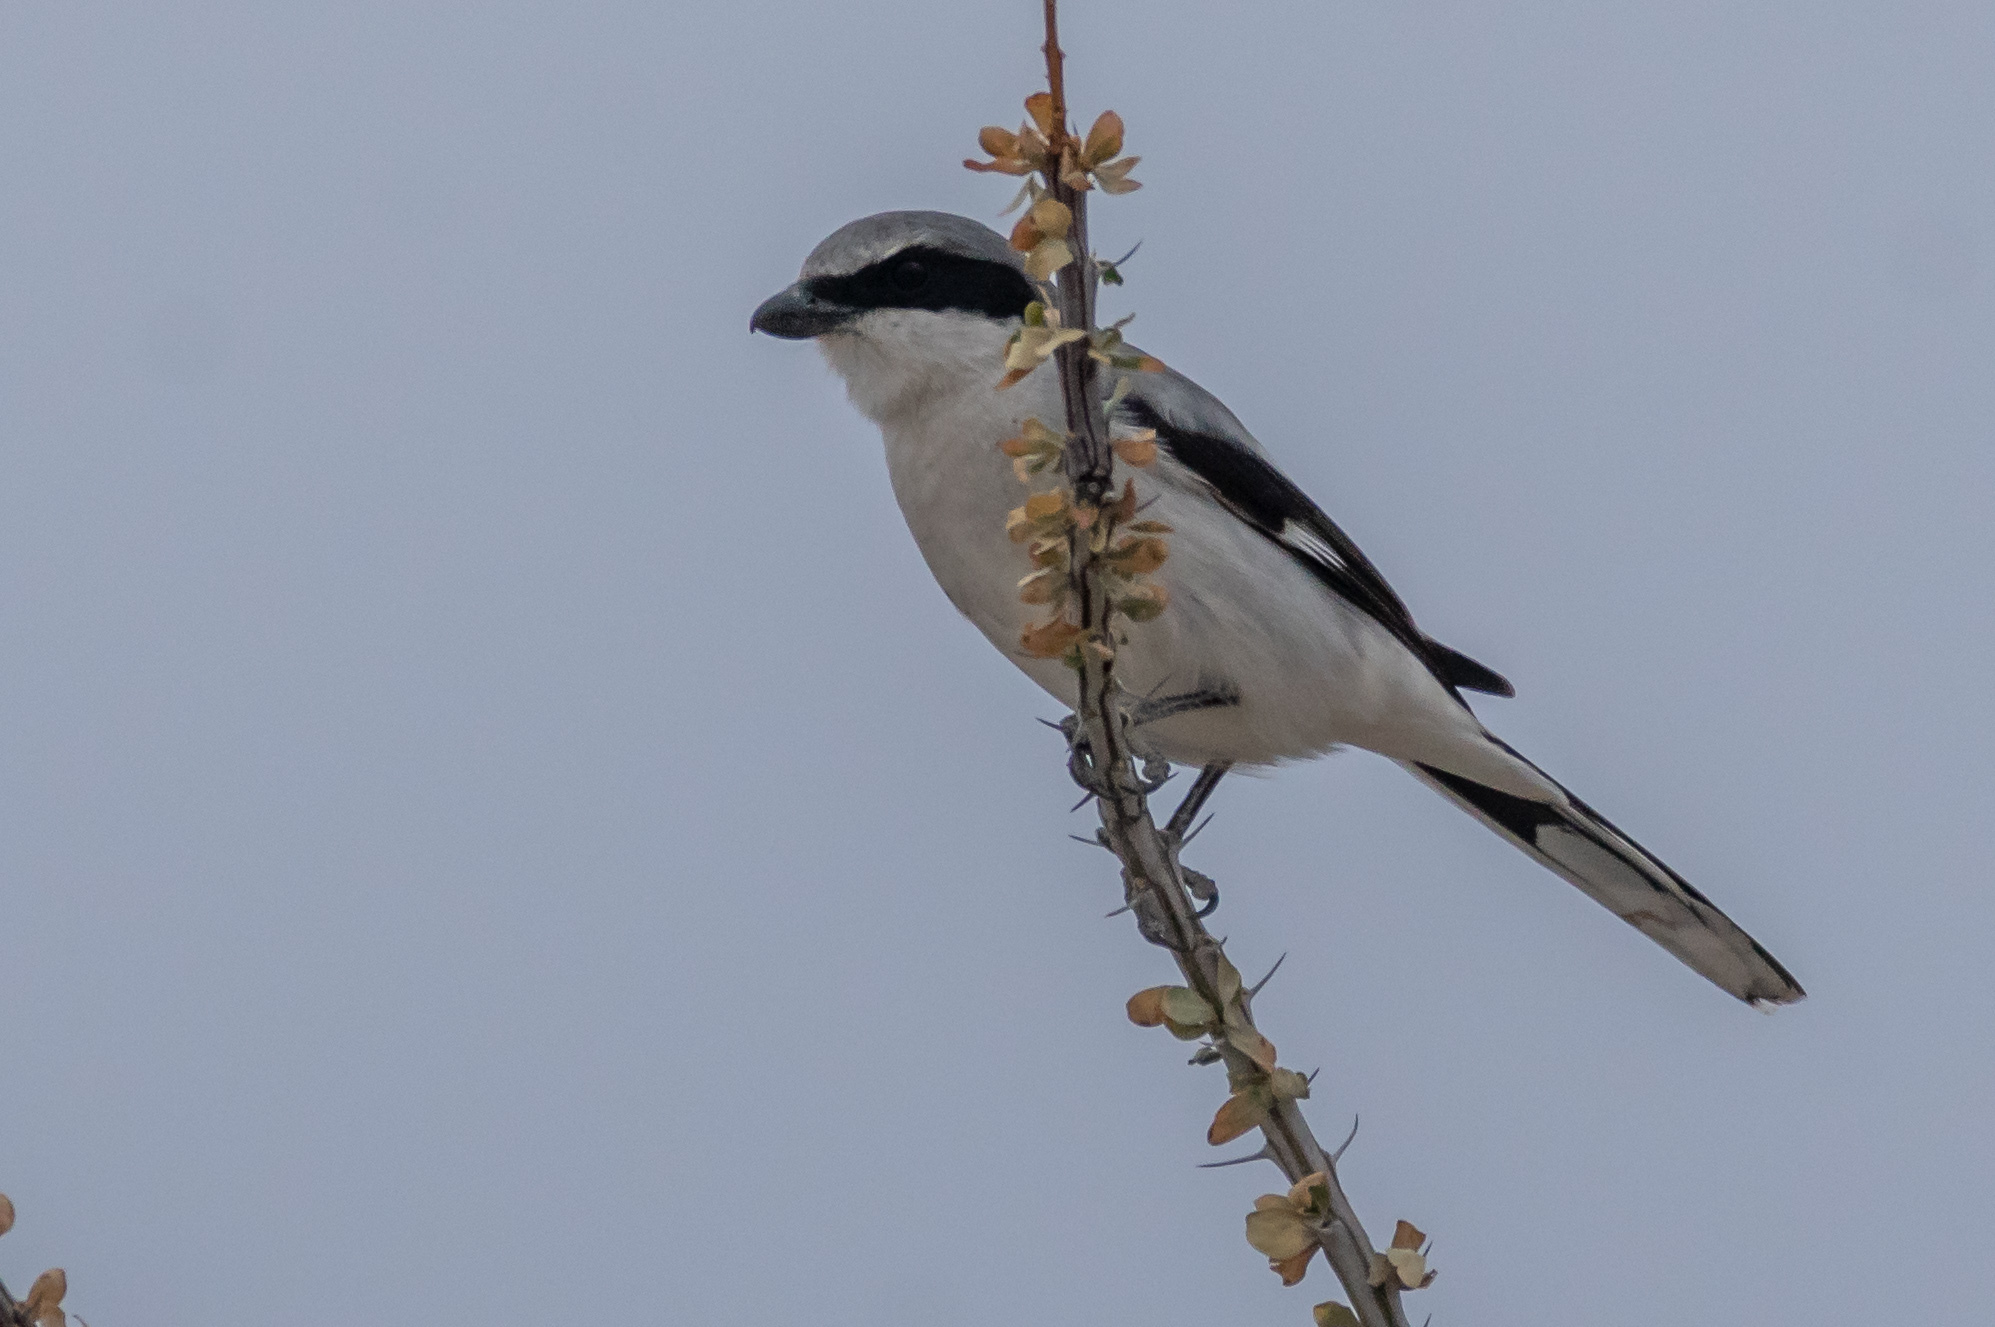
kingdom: Animalia
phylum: Chordata
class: Aves
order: Passeriformes
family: Laniidae
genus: Lanius
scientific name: Lanius ludovicianus
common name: Loggerhead shrike
